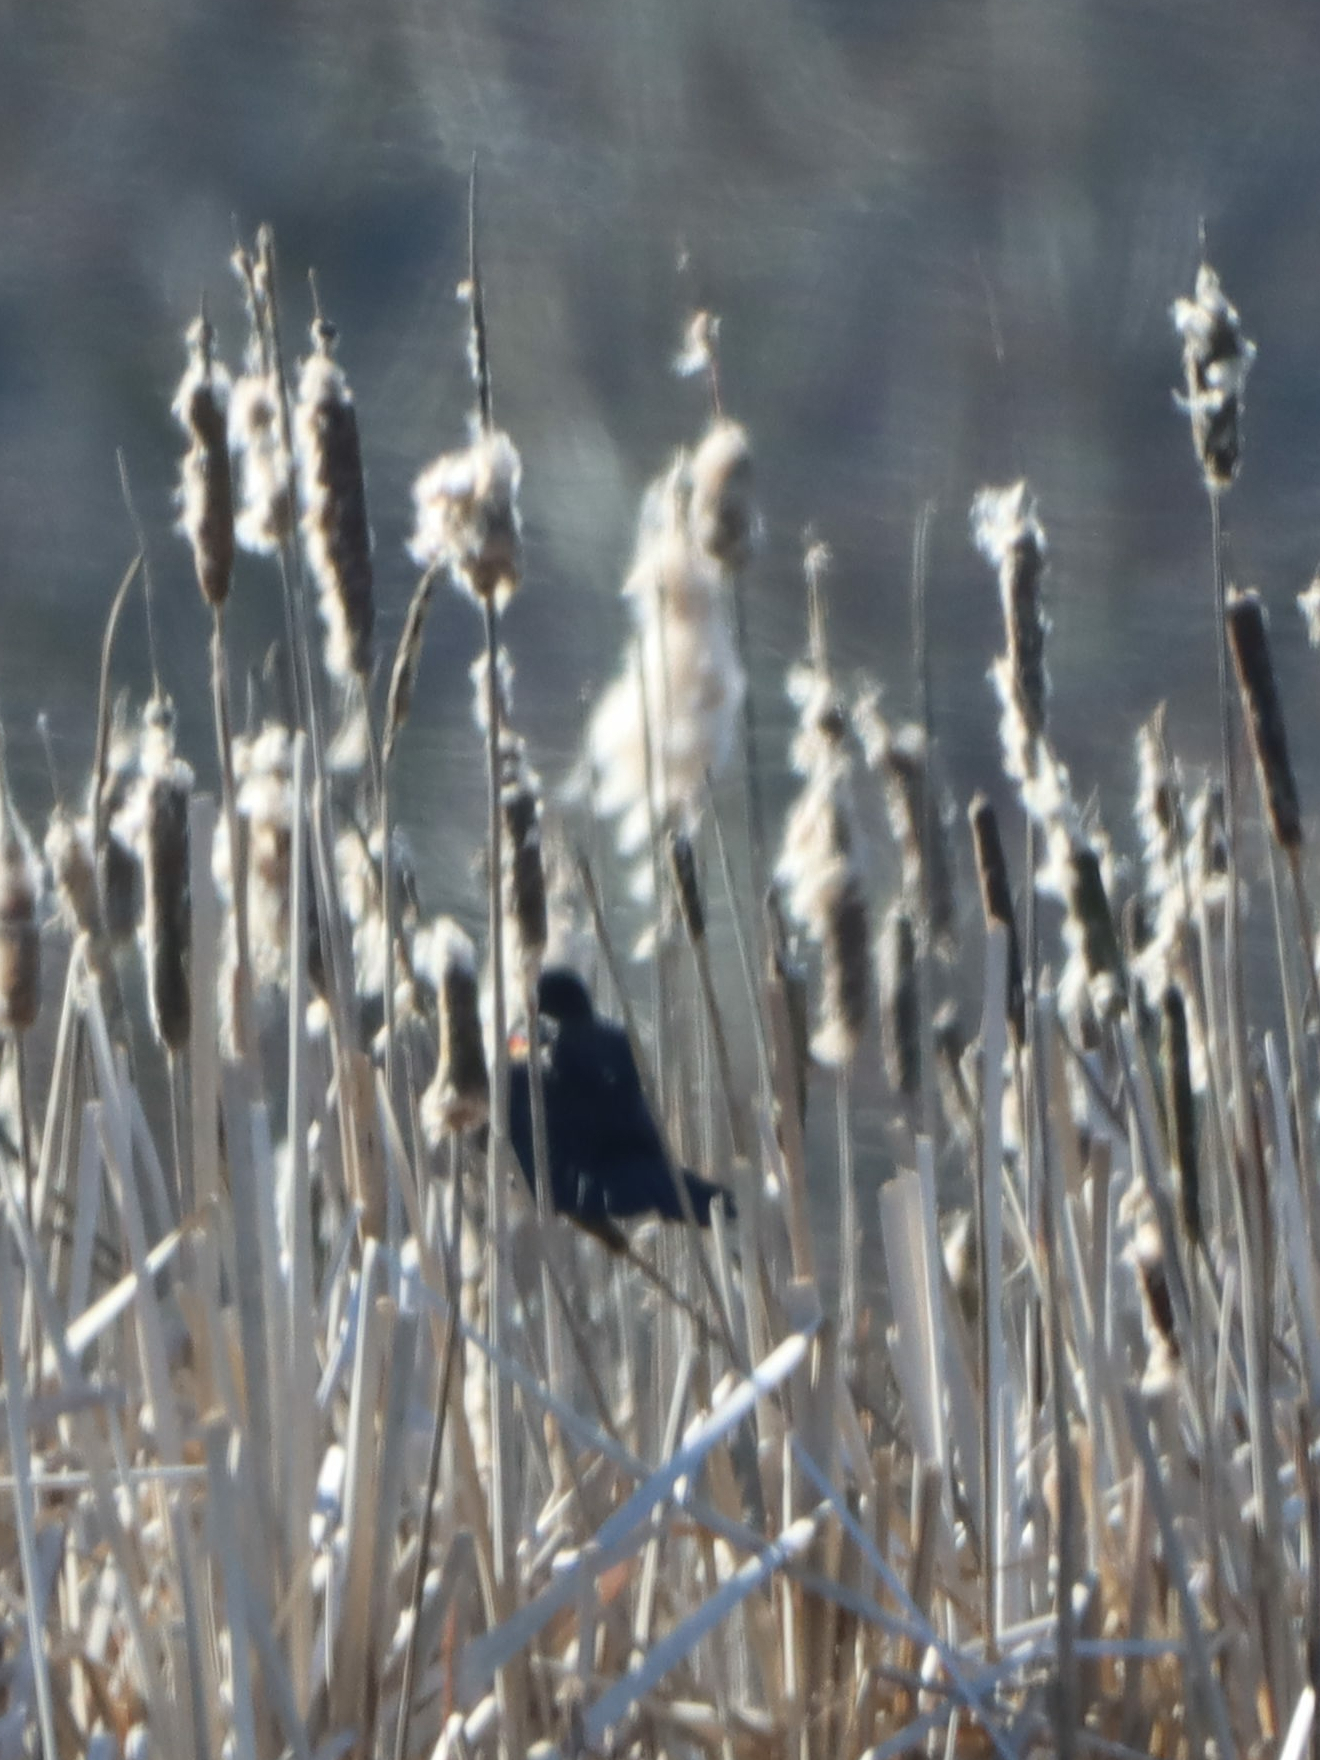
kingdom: Animalia
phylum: Chordata
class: Aves
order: Passeriformes
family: Icteridae
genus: Agelaius
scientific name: Agelaius phoeniceus
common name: Red-winged blackbird
